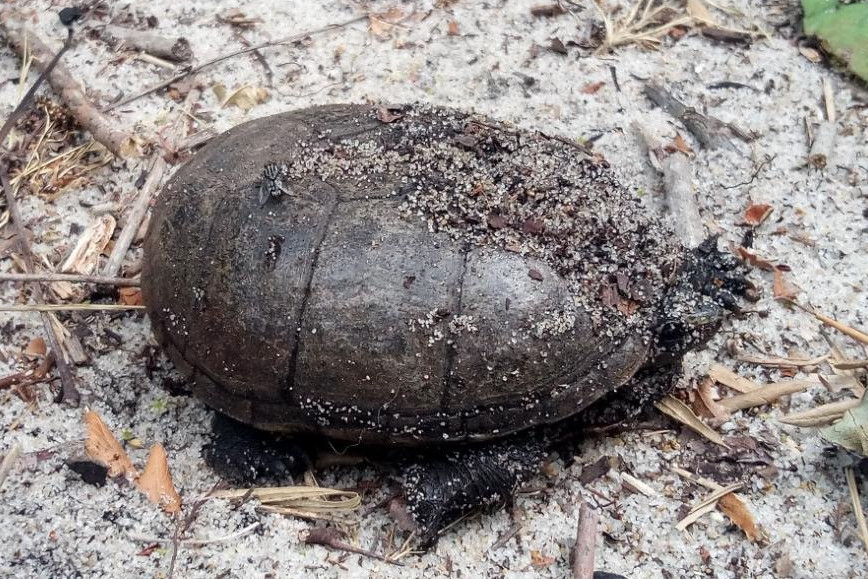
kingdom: Animalia
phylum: Chordata
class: Testudines
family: Kinosternidae
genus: Kinosternon
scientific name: Kinosternon baurii
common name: Striped mud turtle
